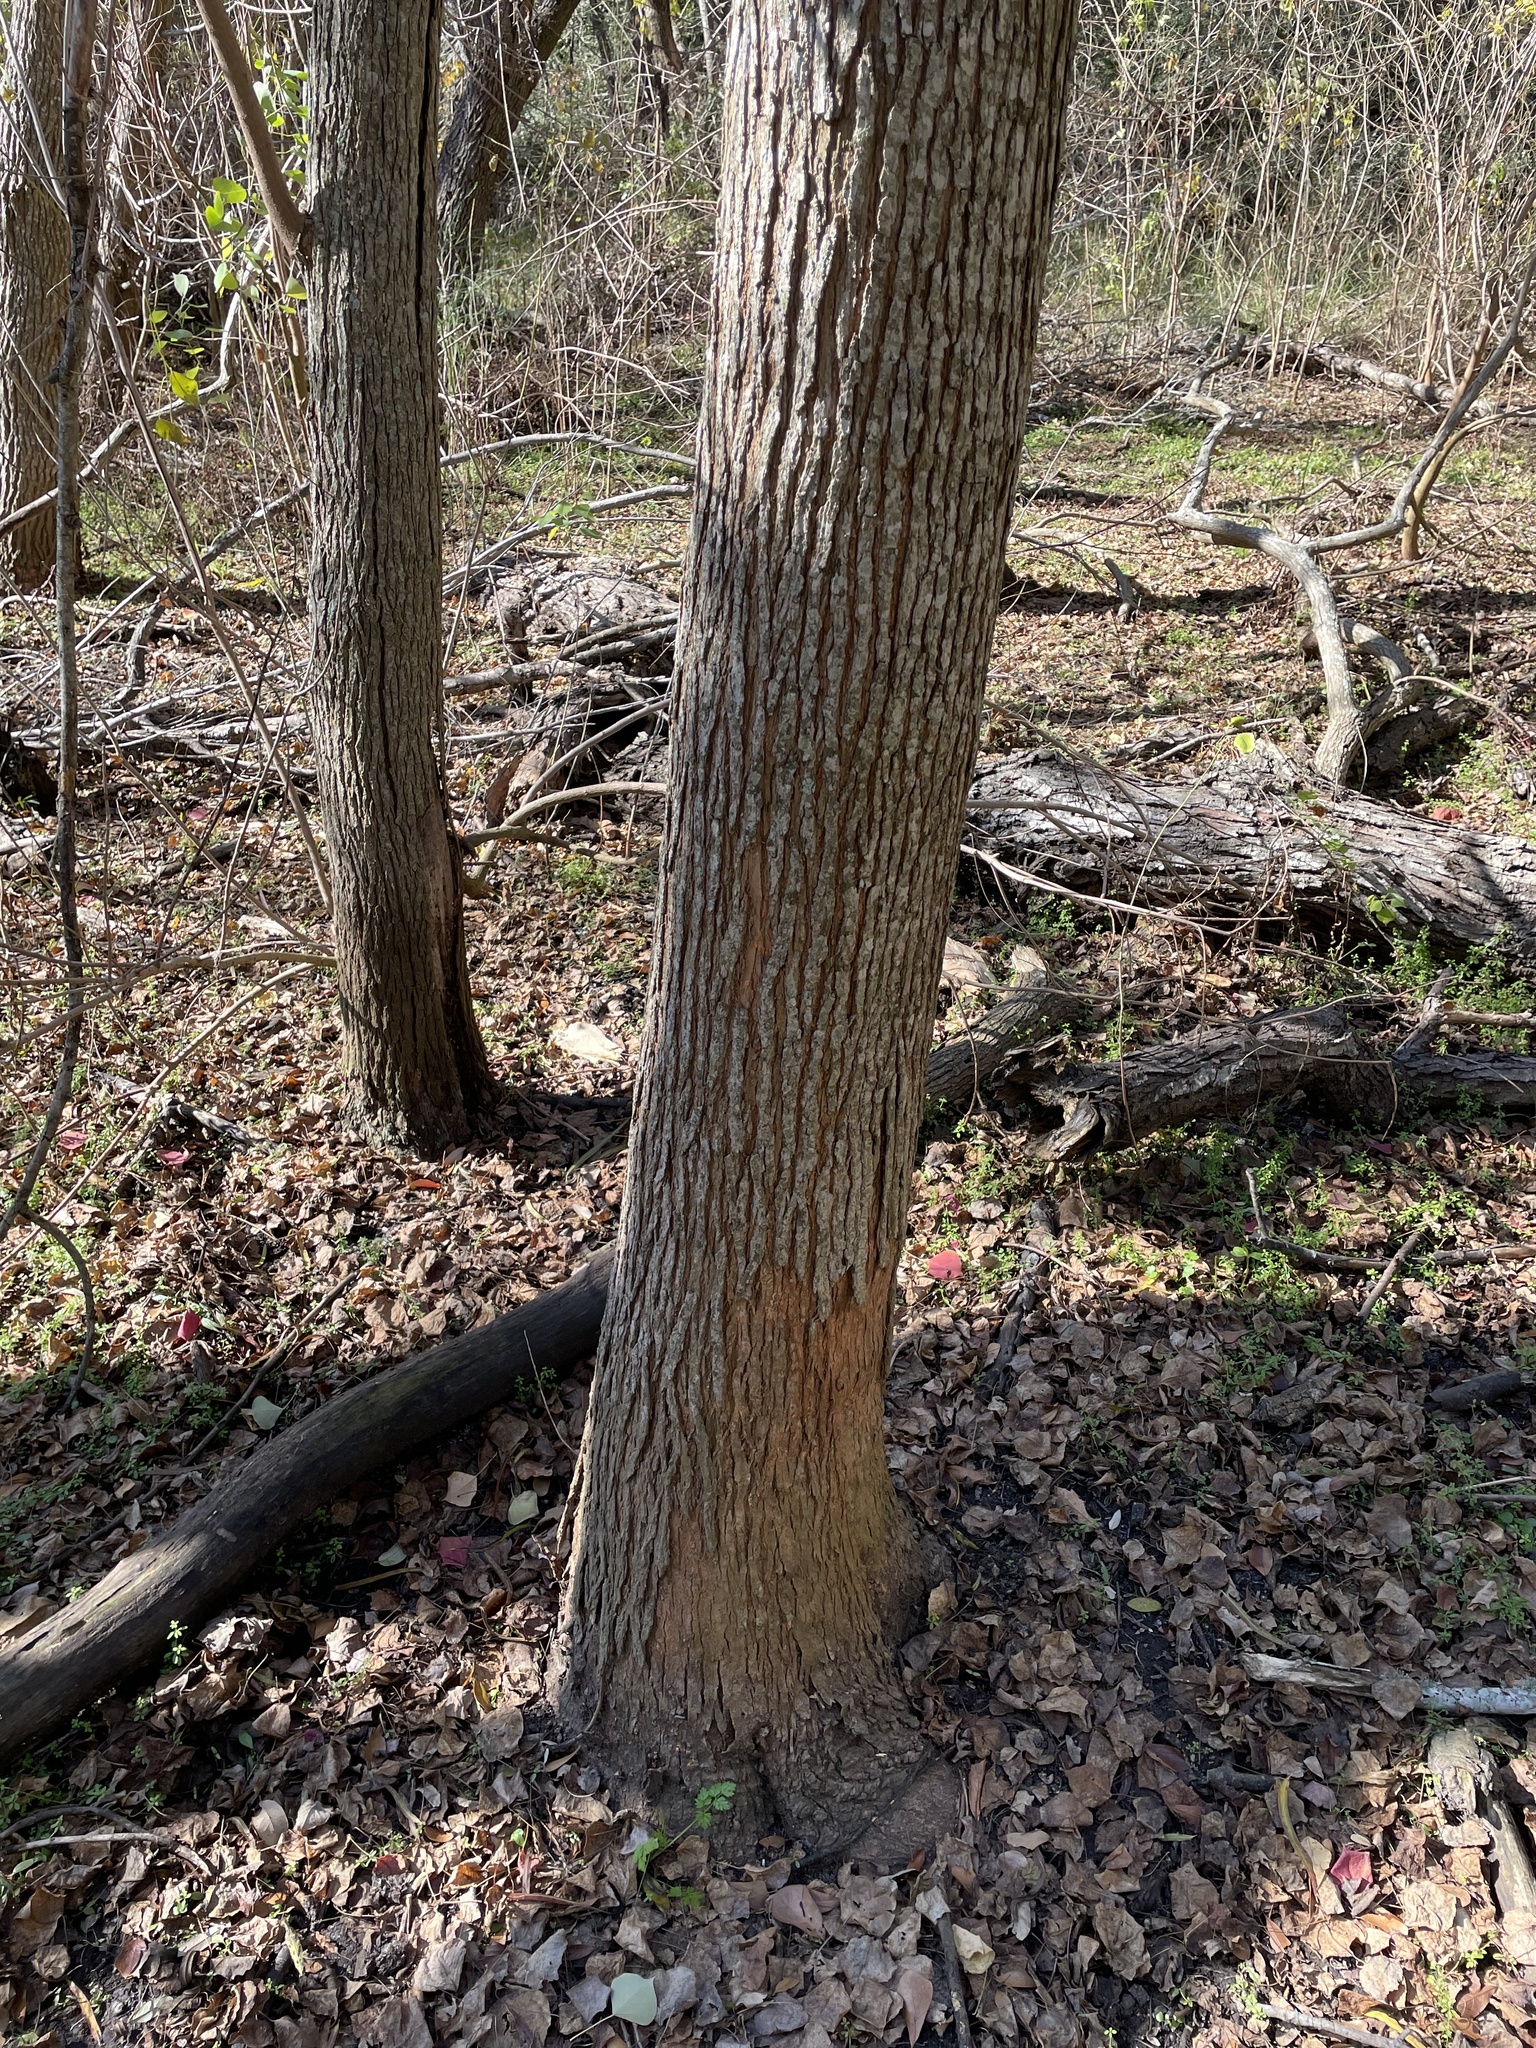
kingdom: Plantae
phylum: Tracheophyta
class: Magnoliopsida
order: Malpighiales
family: Euphorbiaceae
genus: Triadica
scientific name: Triadica sebifera
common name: Chinese tallow
